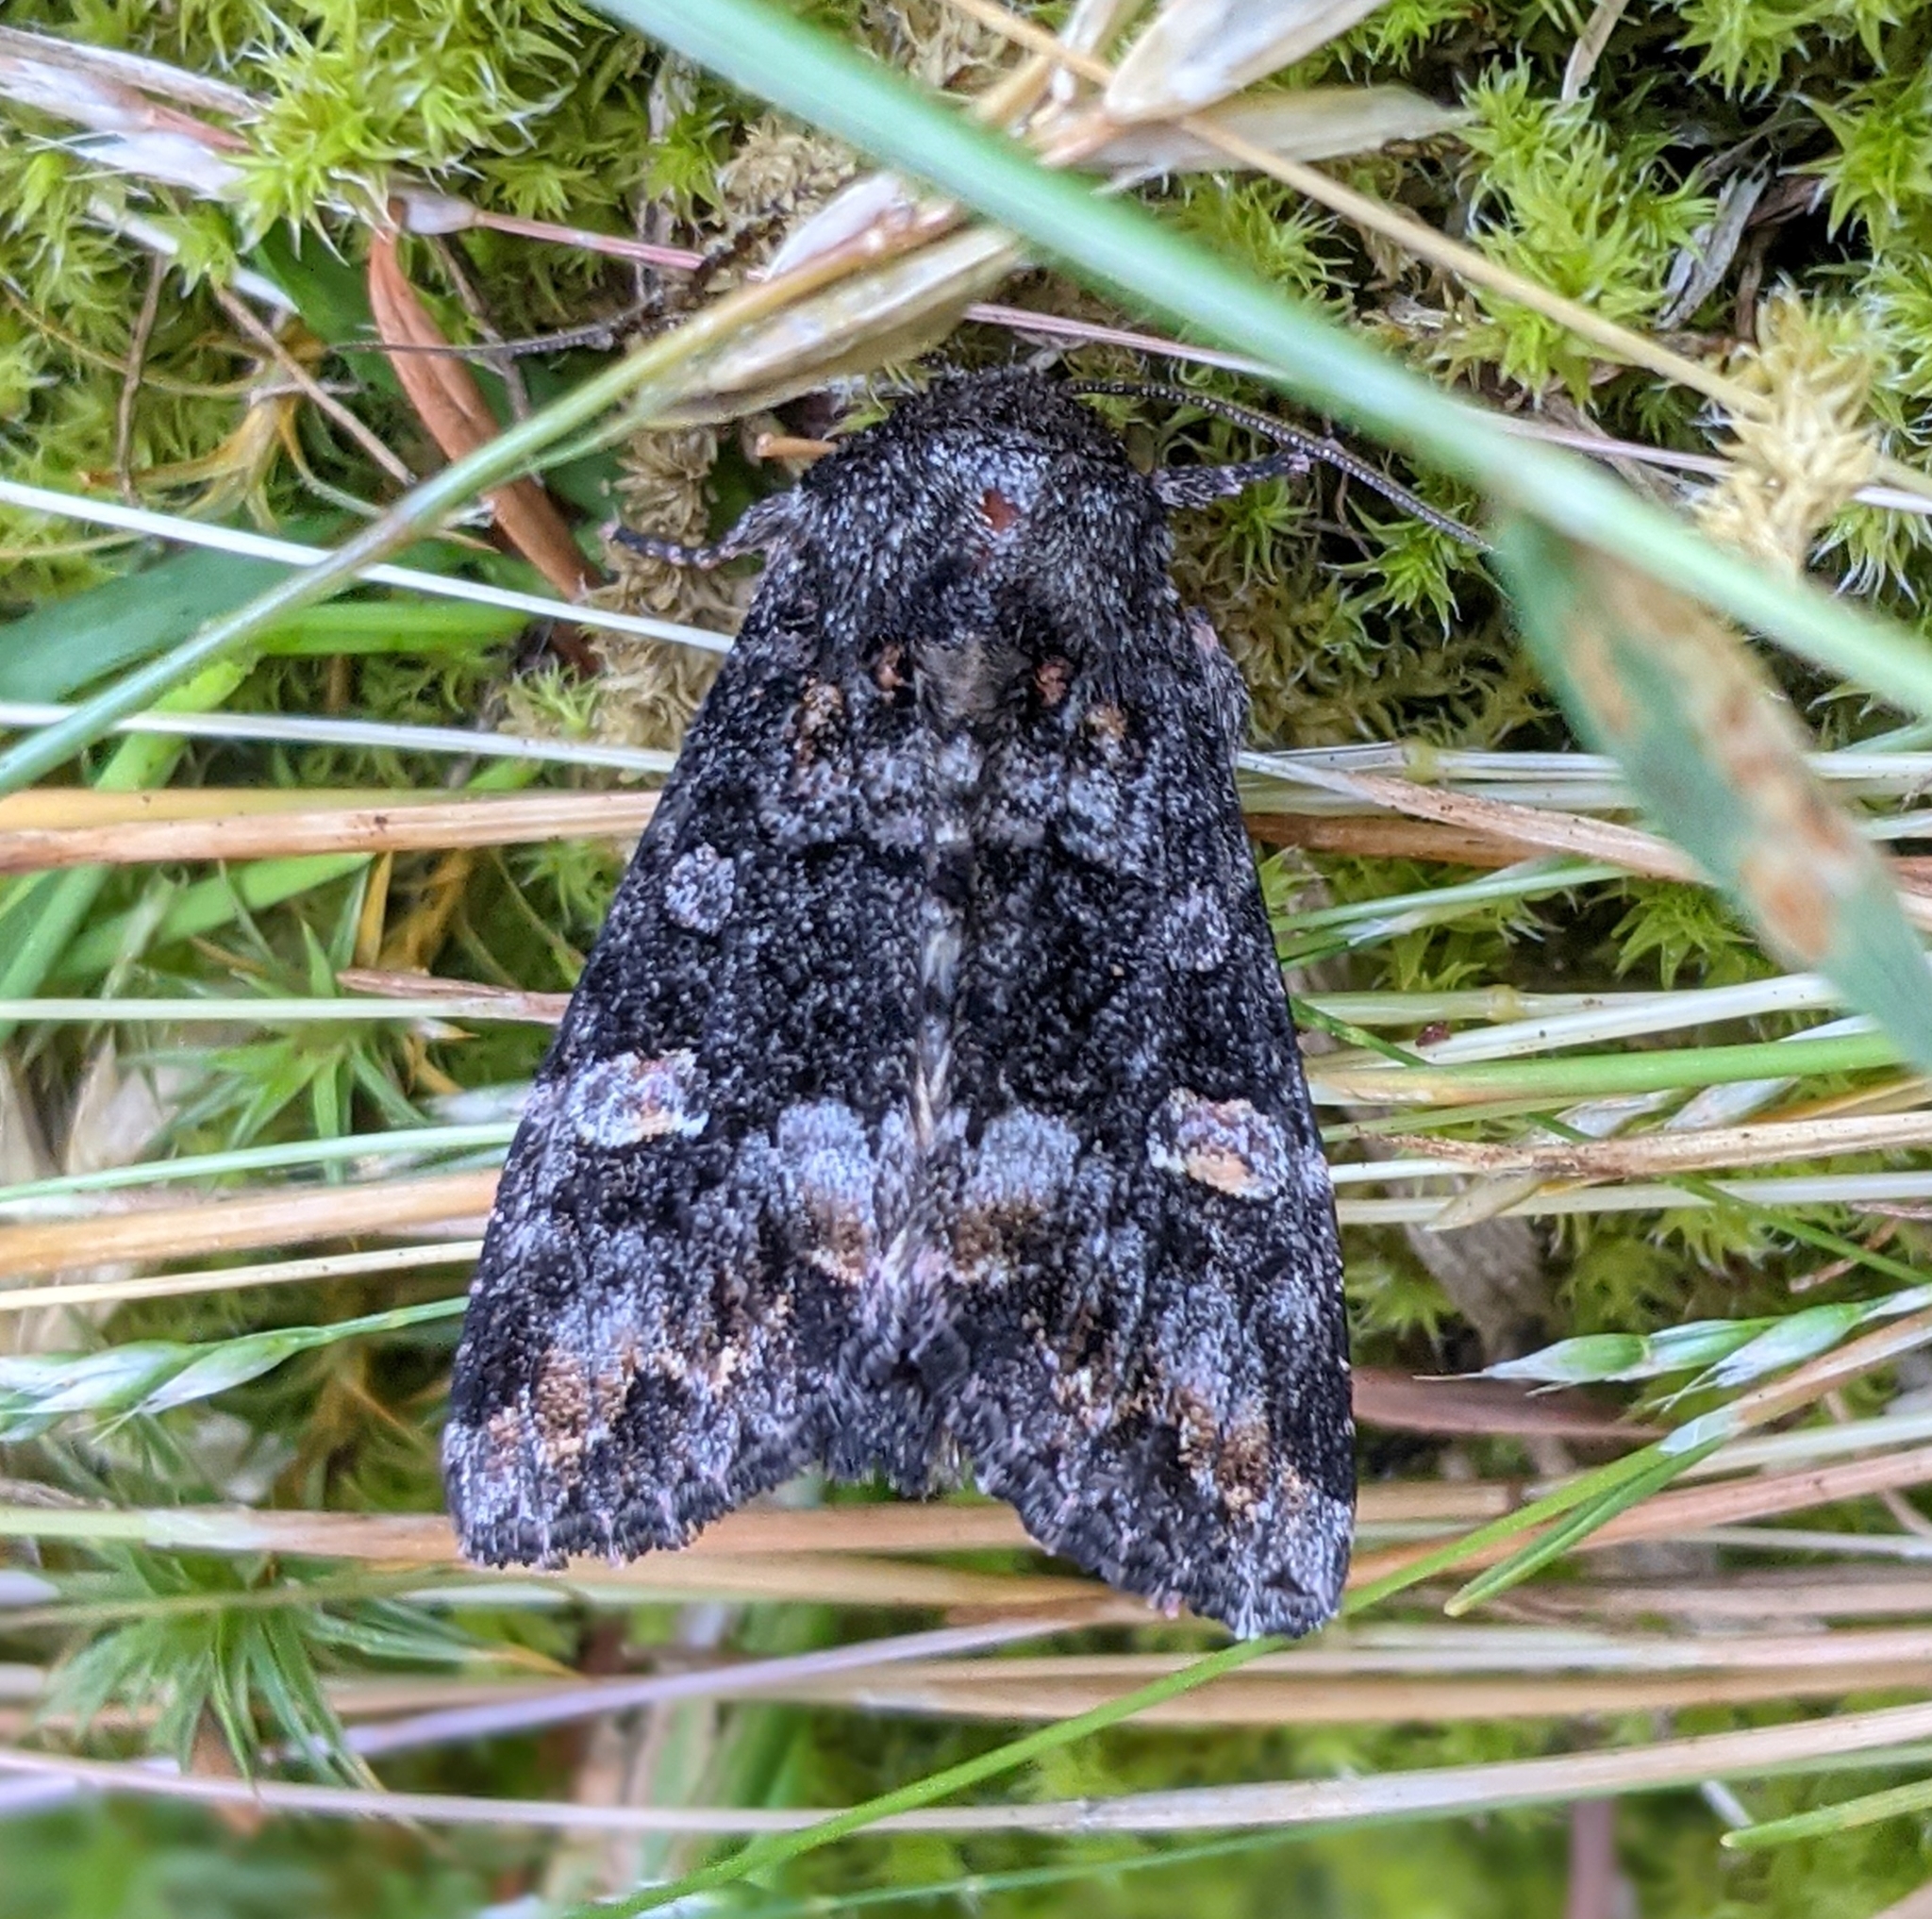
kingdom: Animalia
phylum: Arthropoda
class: Insecta
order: Lepidoptera
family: Noctuidae
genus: Spiramater
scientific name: Spiramater lutra
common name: Otter spiramater moth
